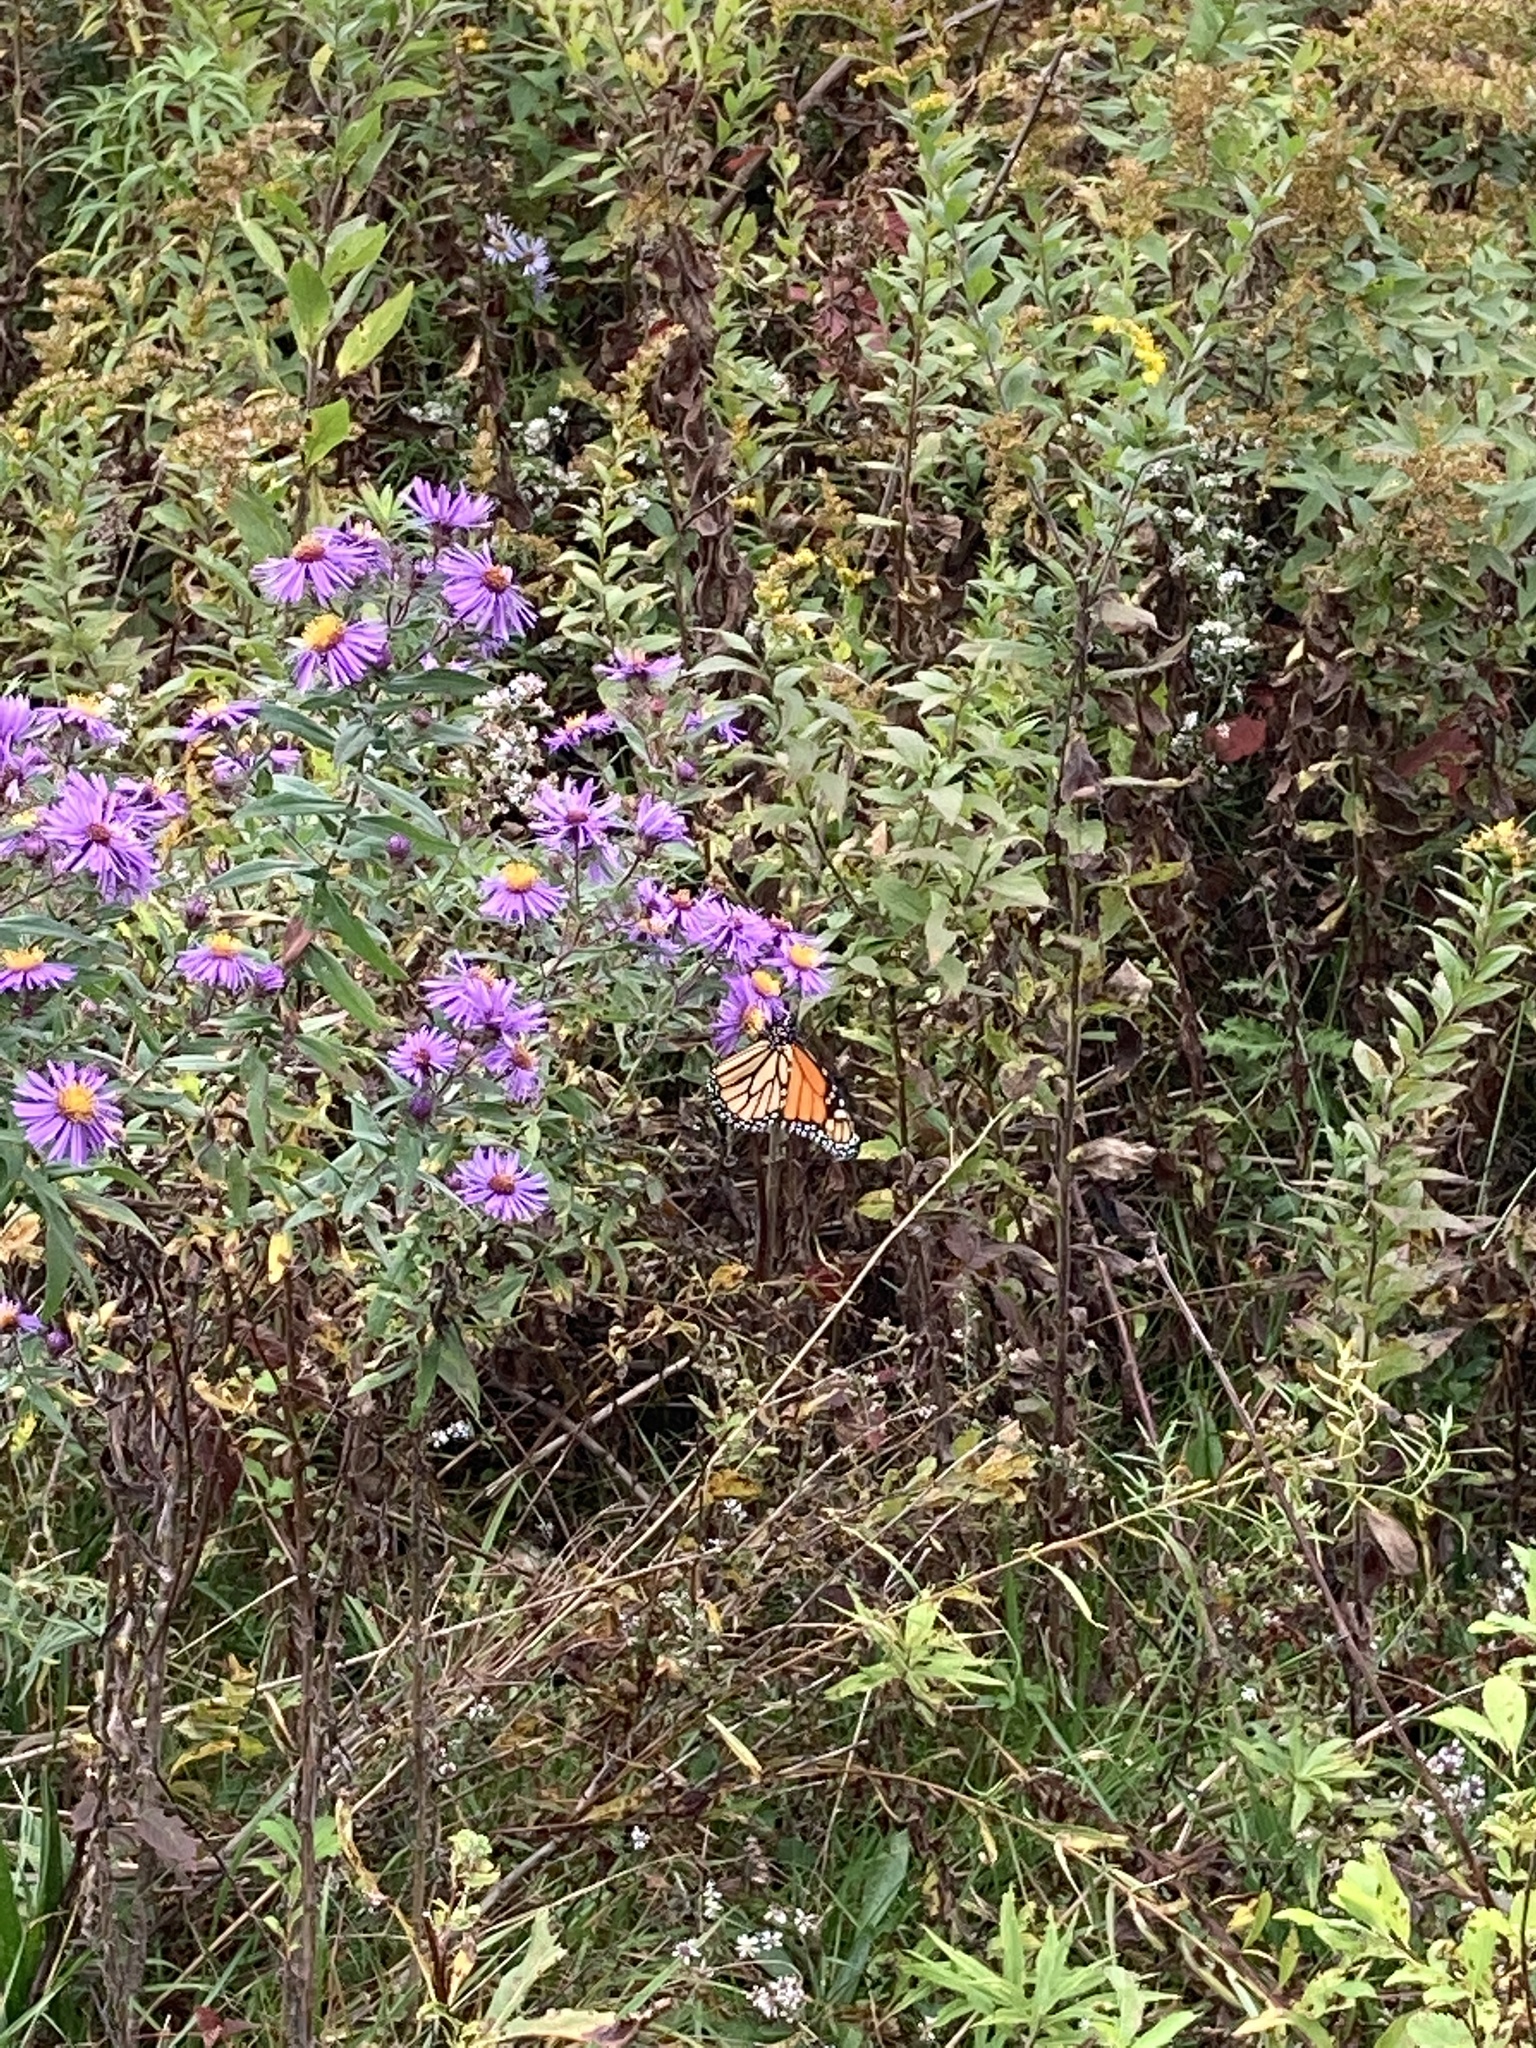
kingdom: Animalia
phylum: Arthropoda
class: Insecta
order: Lepidoptera
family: Nymphalidae
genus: Danaus
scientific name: Danaus plexippus
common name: Monarch
